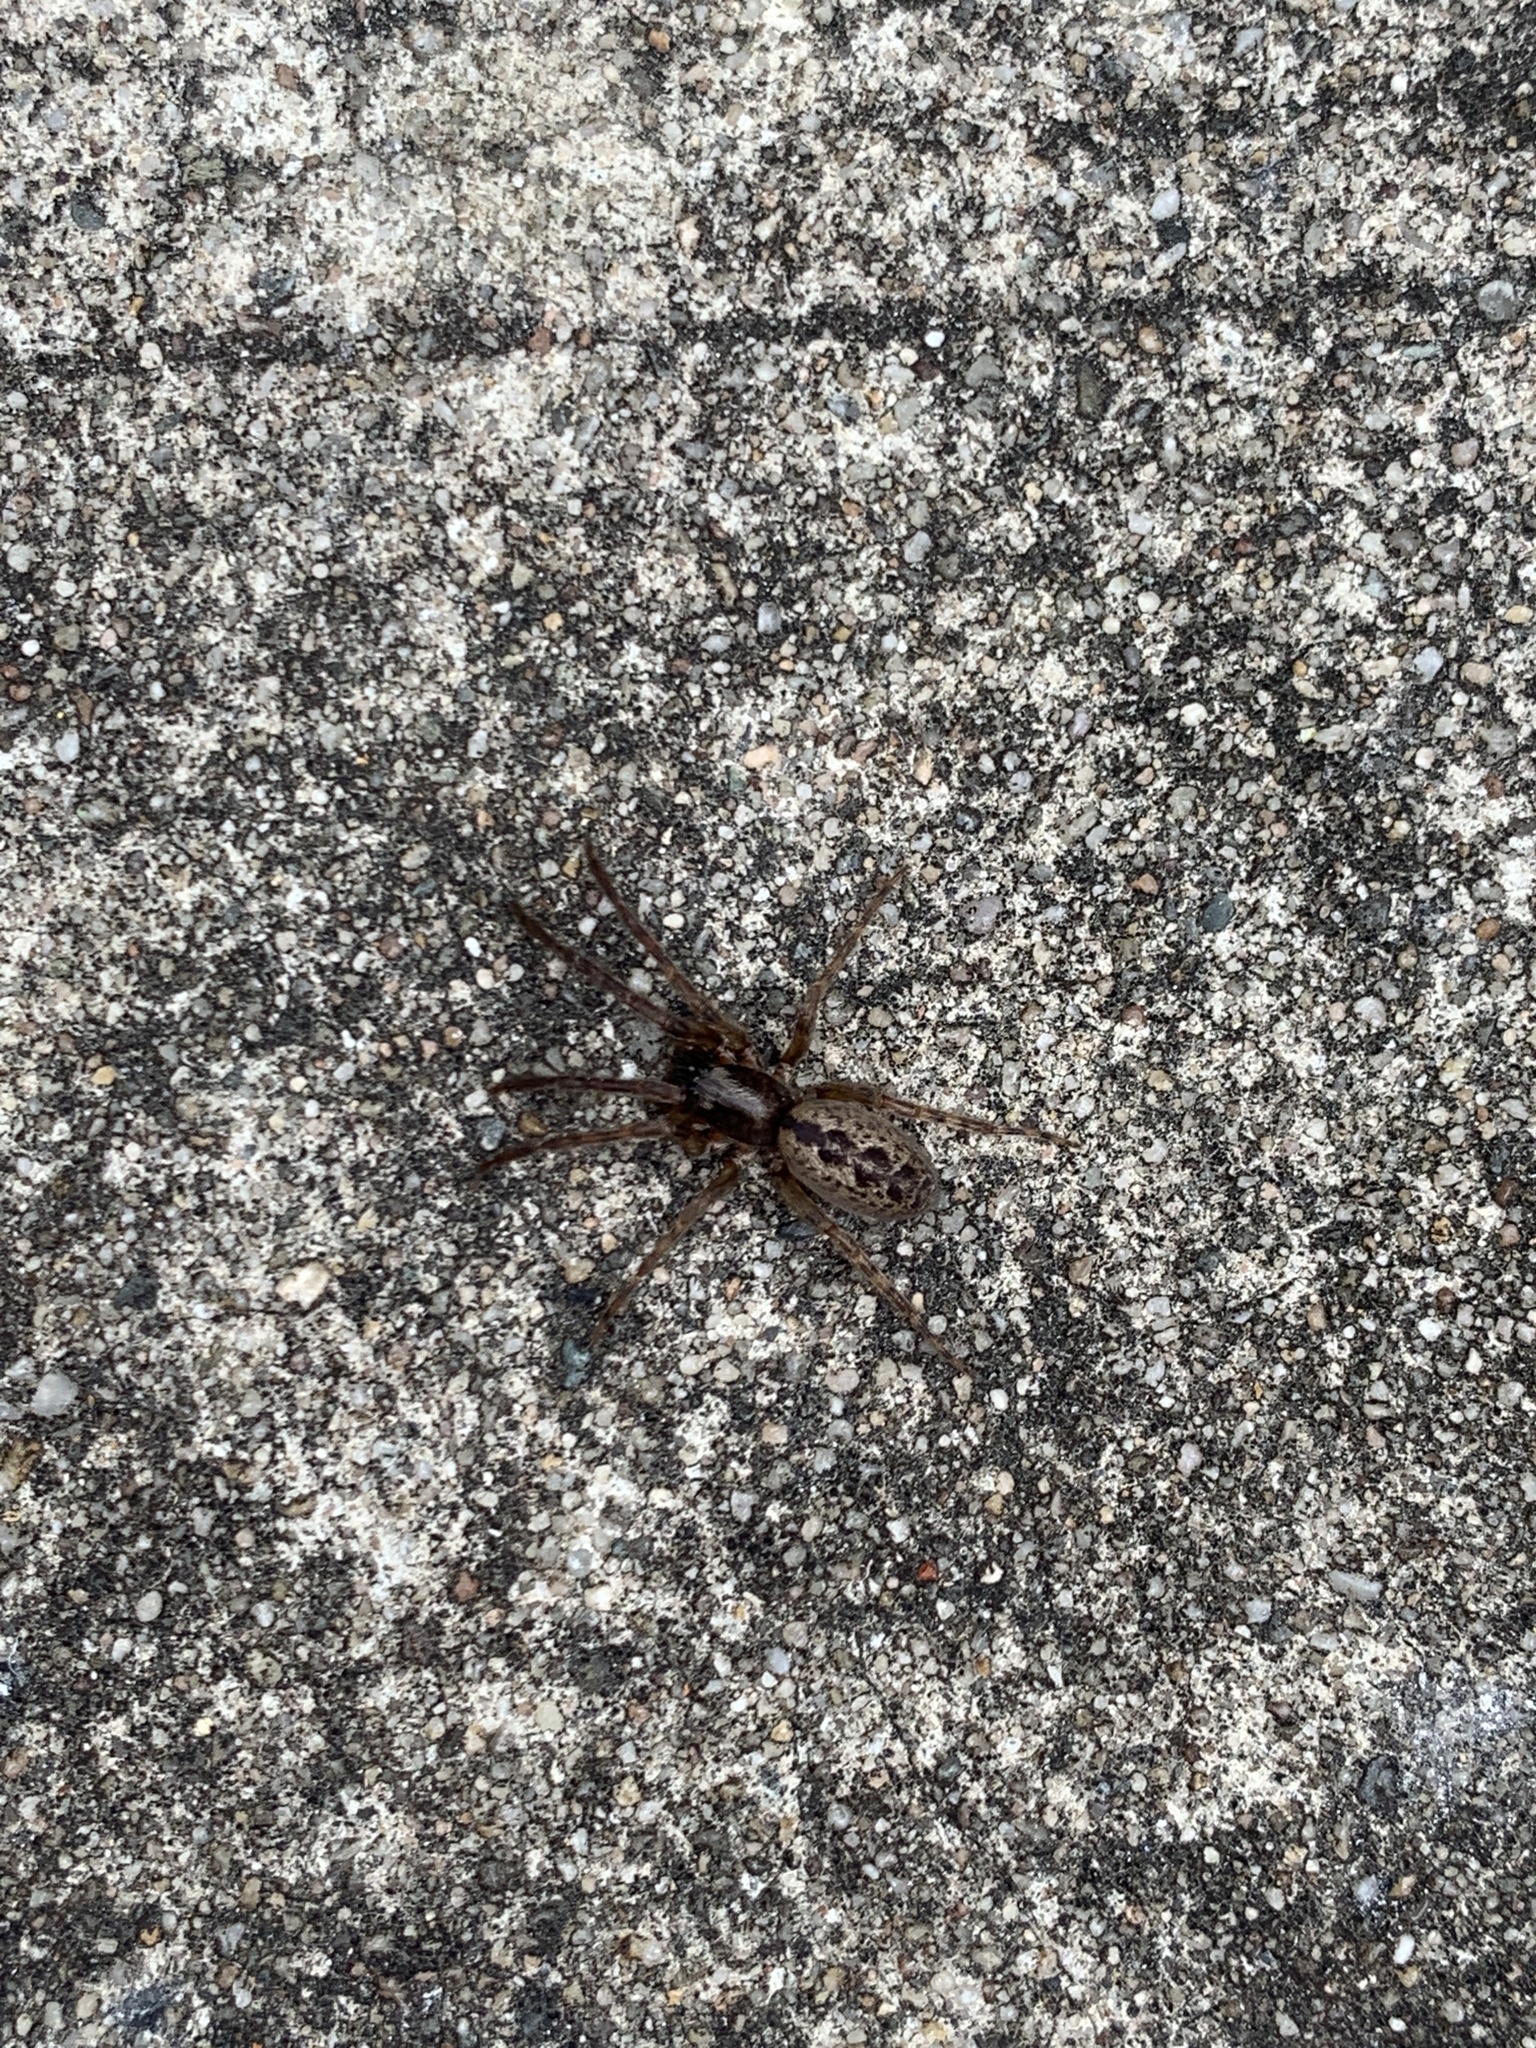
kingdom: Animalia
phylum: Arthropoda
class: Arachnida
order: Araneae
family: Segestriidae
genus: Segestria
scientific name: Segestria bavarica
